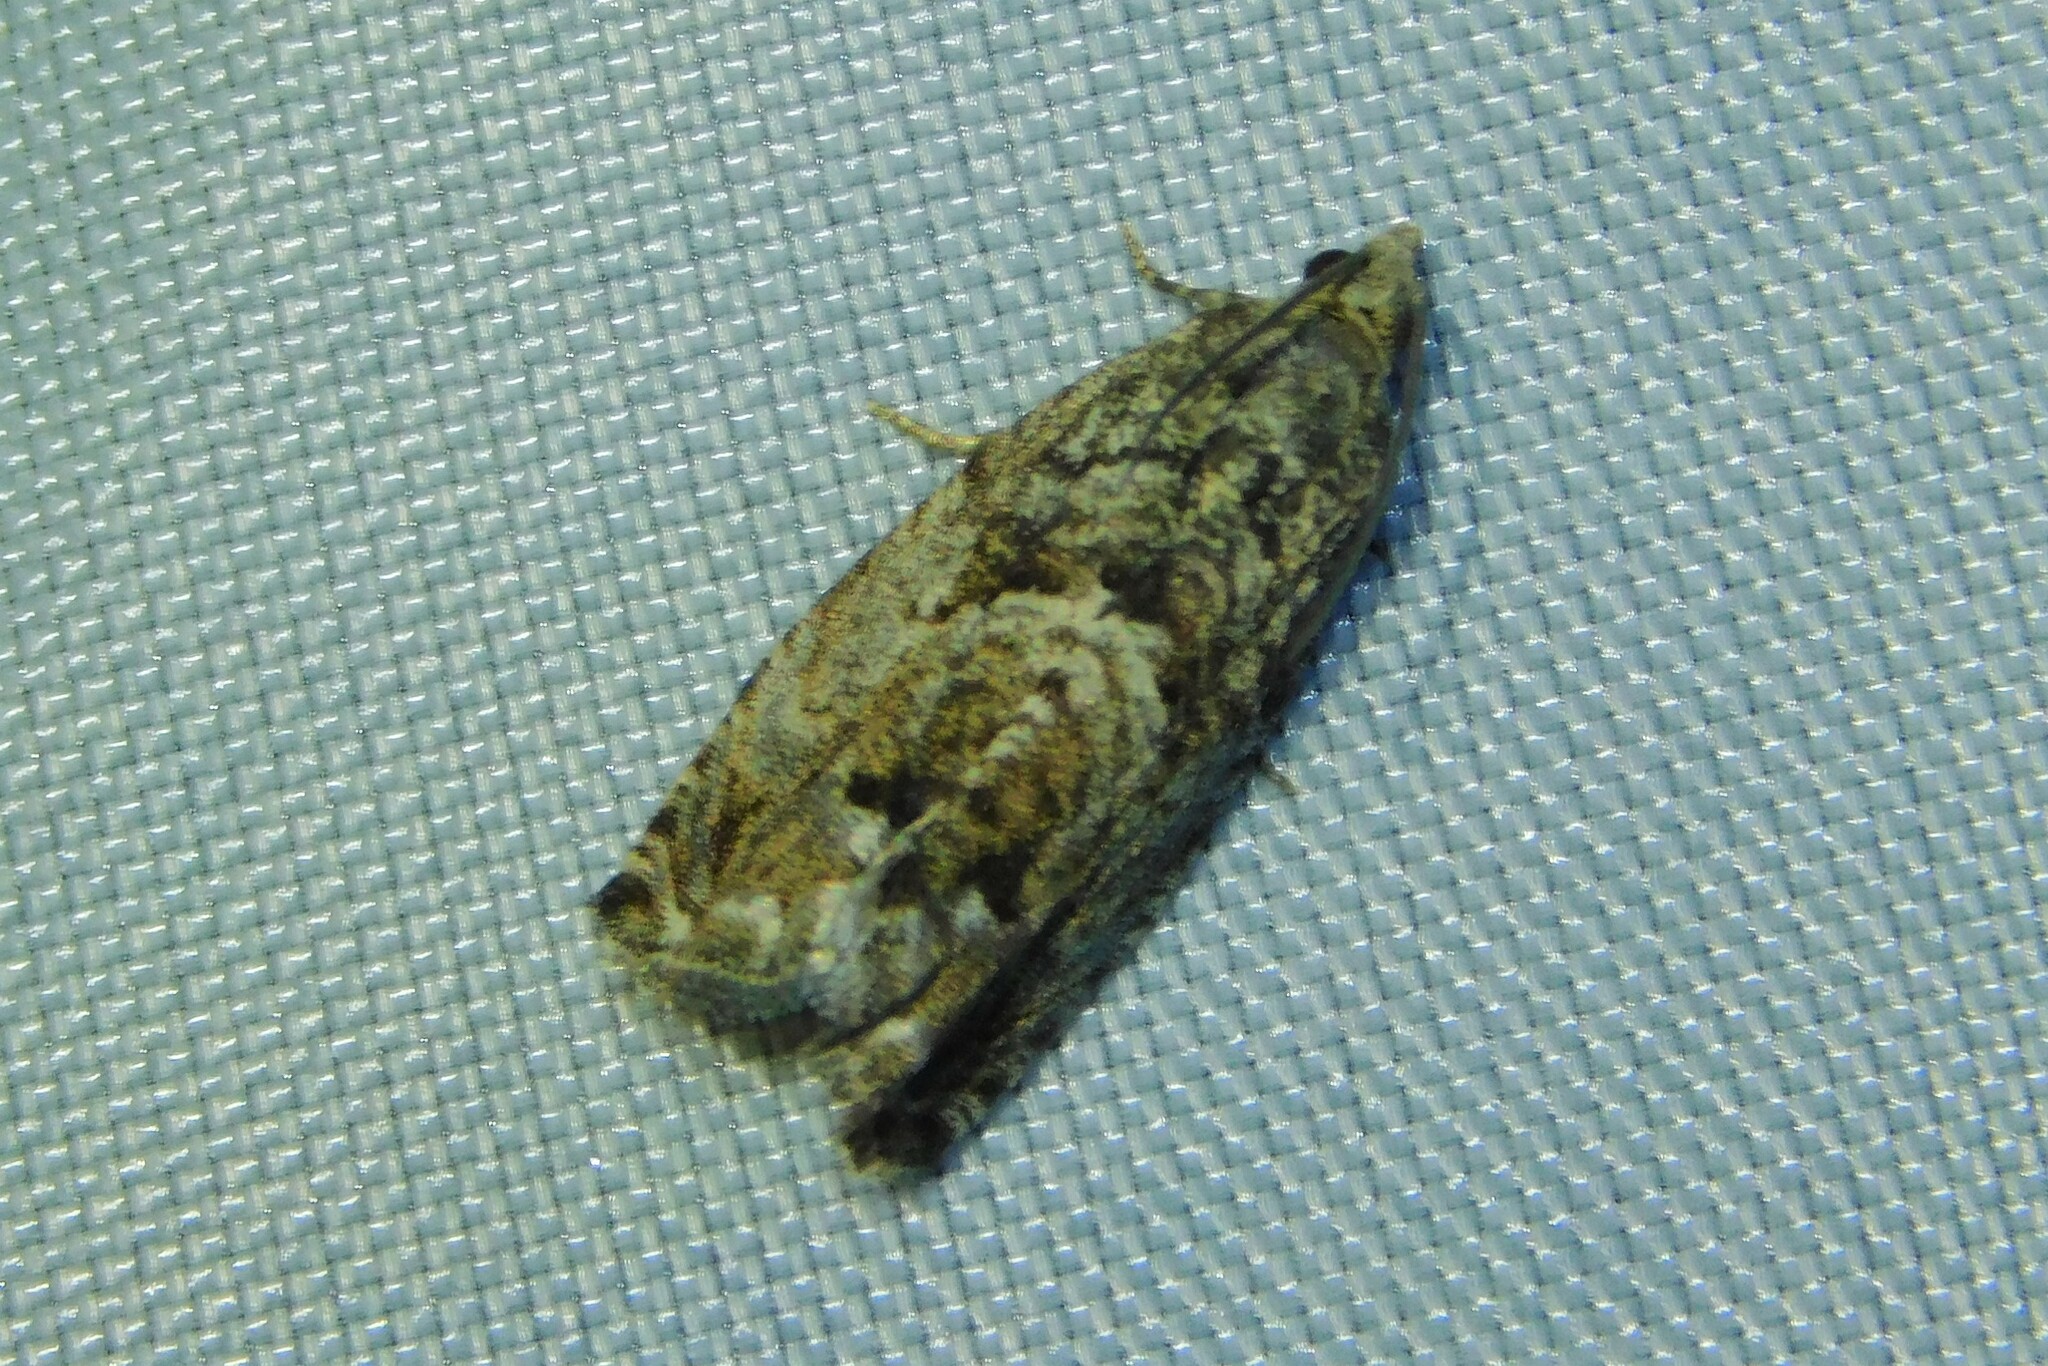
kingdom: Animalia
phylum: Arthropoda
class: Insecta
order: Lepidoptera
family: Tortricidae
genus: Cydia
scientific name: Cydia fagiglandana
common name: Large beech piercer
